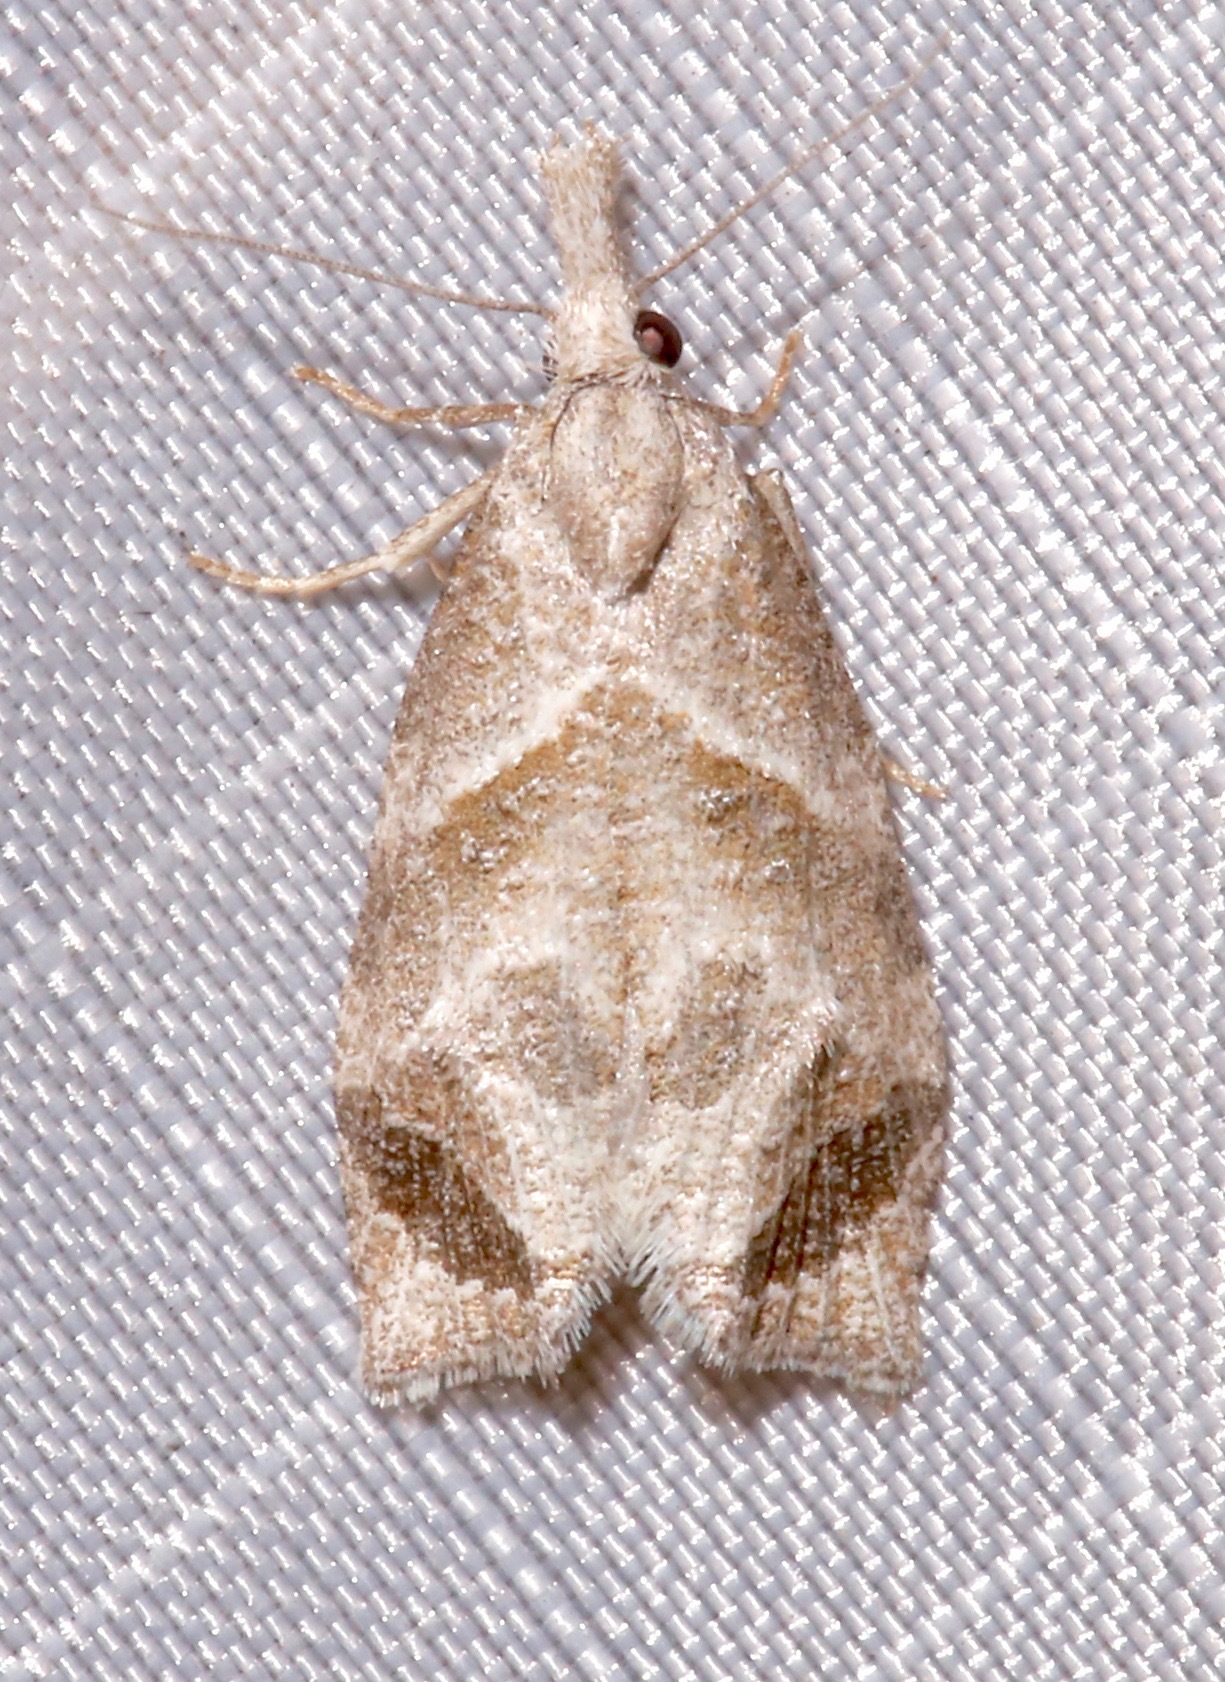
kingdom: Animalia
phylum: Arthropoda
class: Insecta
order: Lepidoptera
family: Tortricidae
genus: Phtheochroa
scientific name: Phtheochroa perspicuana
